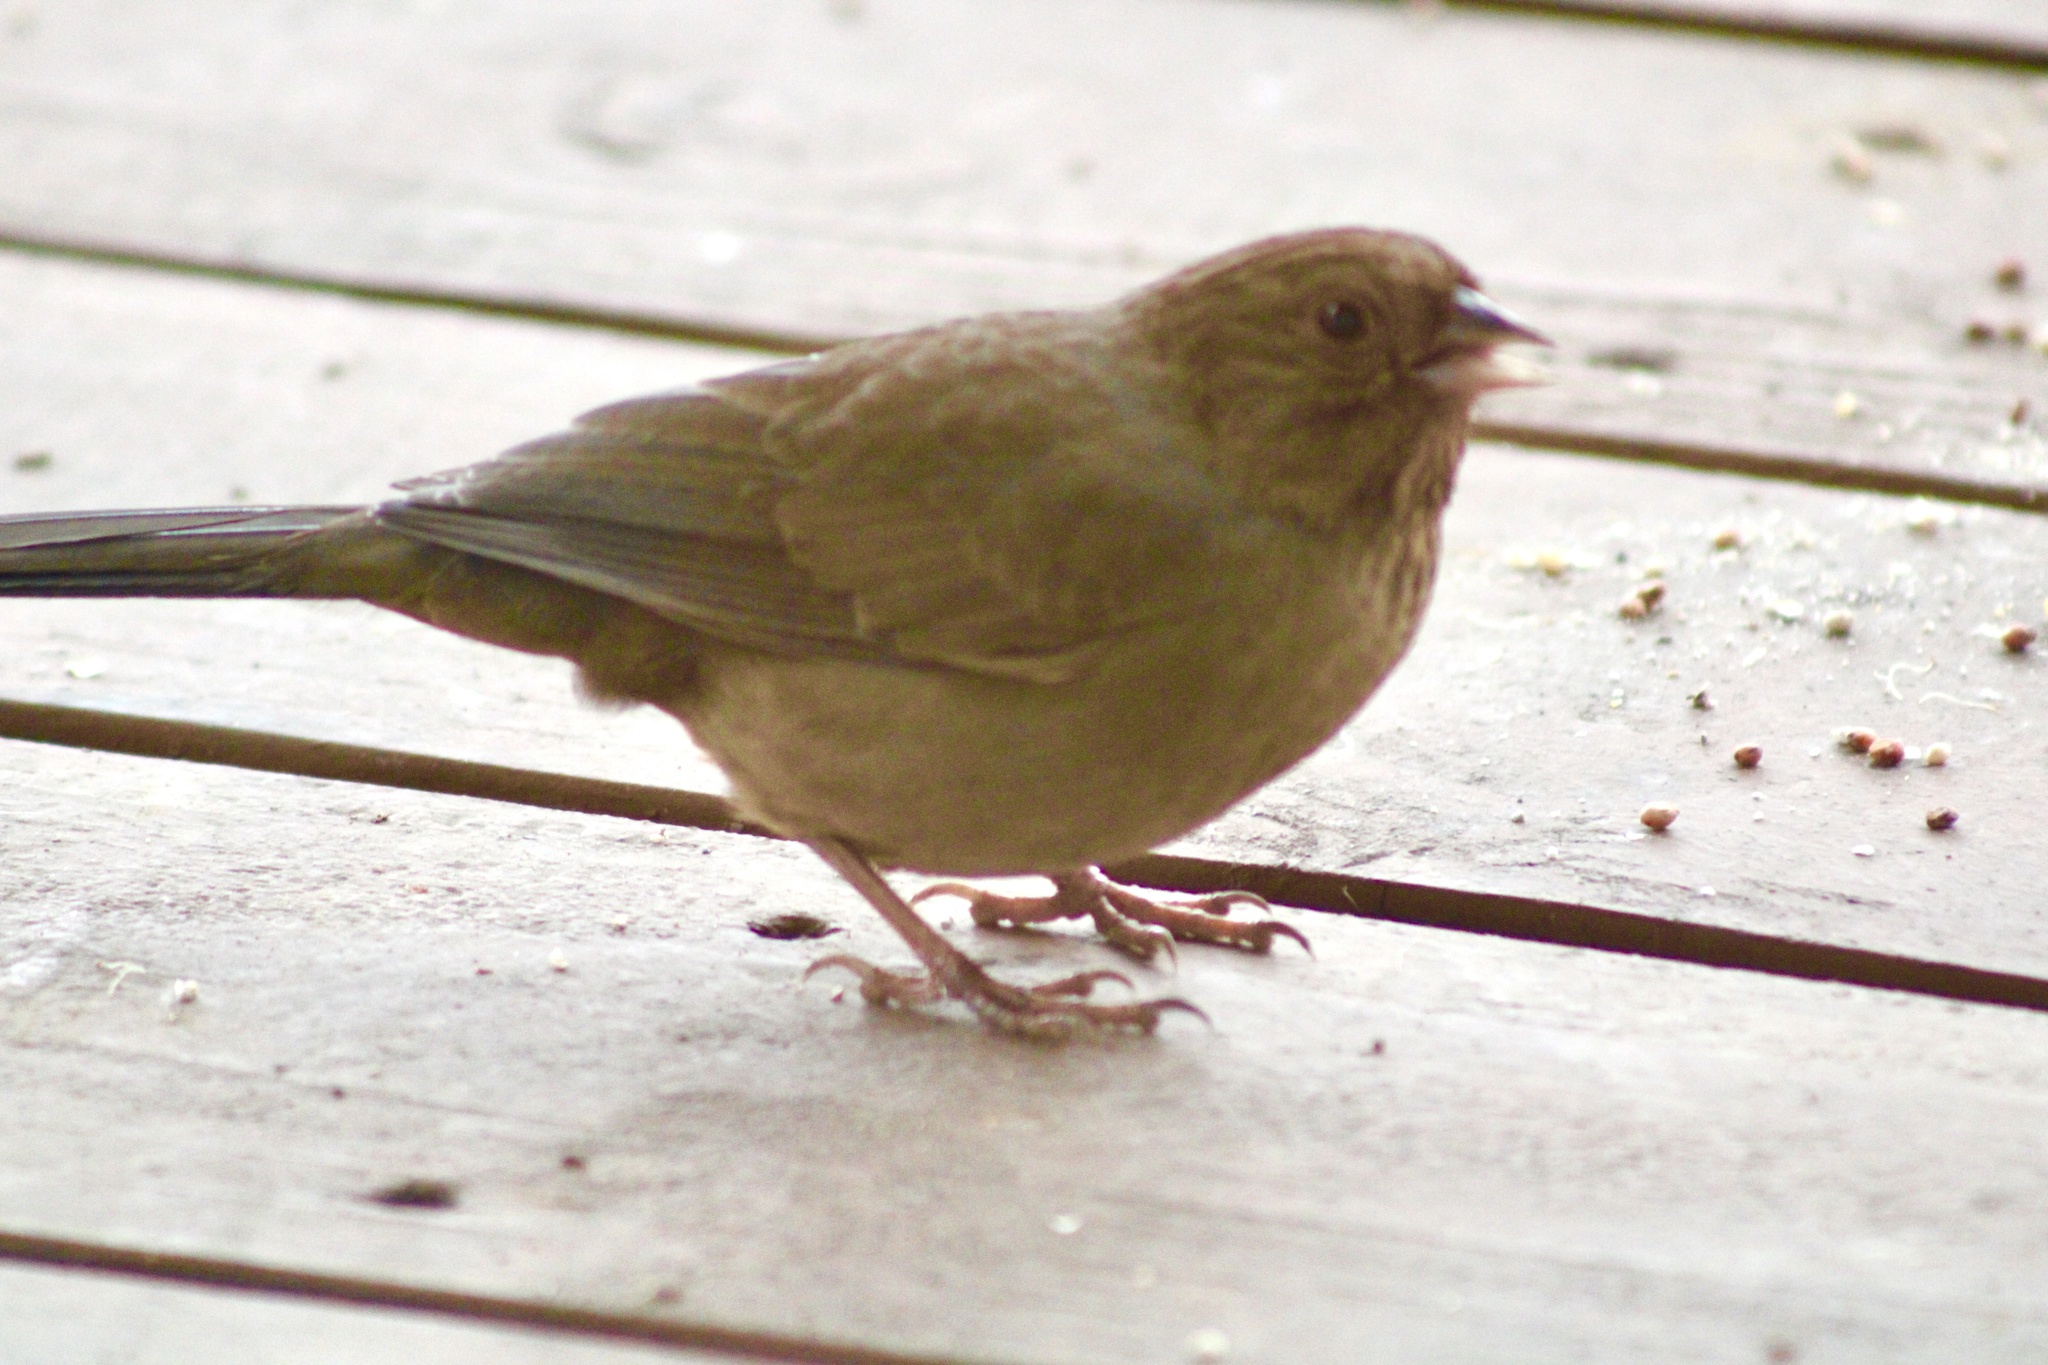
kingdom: Animalia
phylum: Chordata
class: Aves
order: Passeriformes
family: Passerellidae
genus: Melozone
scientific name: Melozone crissalis
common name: California towhee
